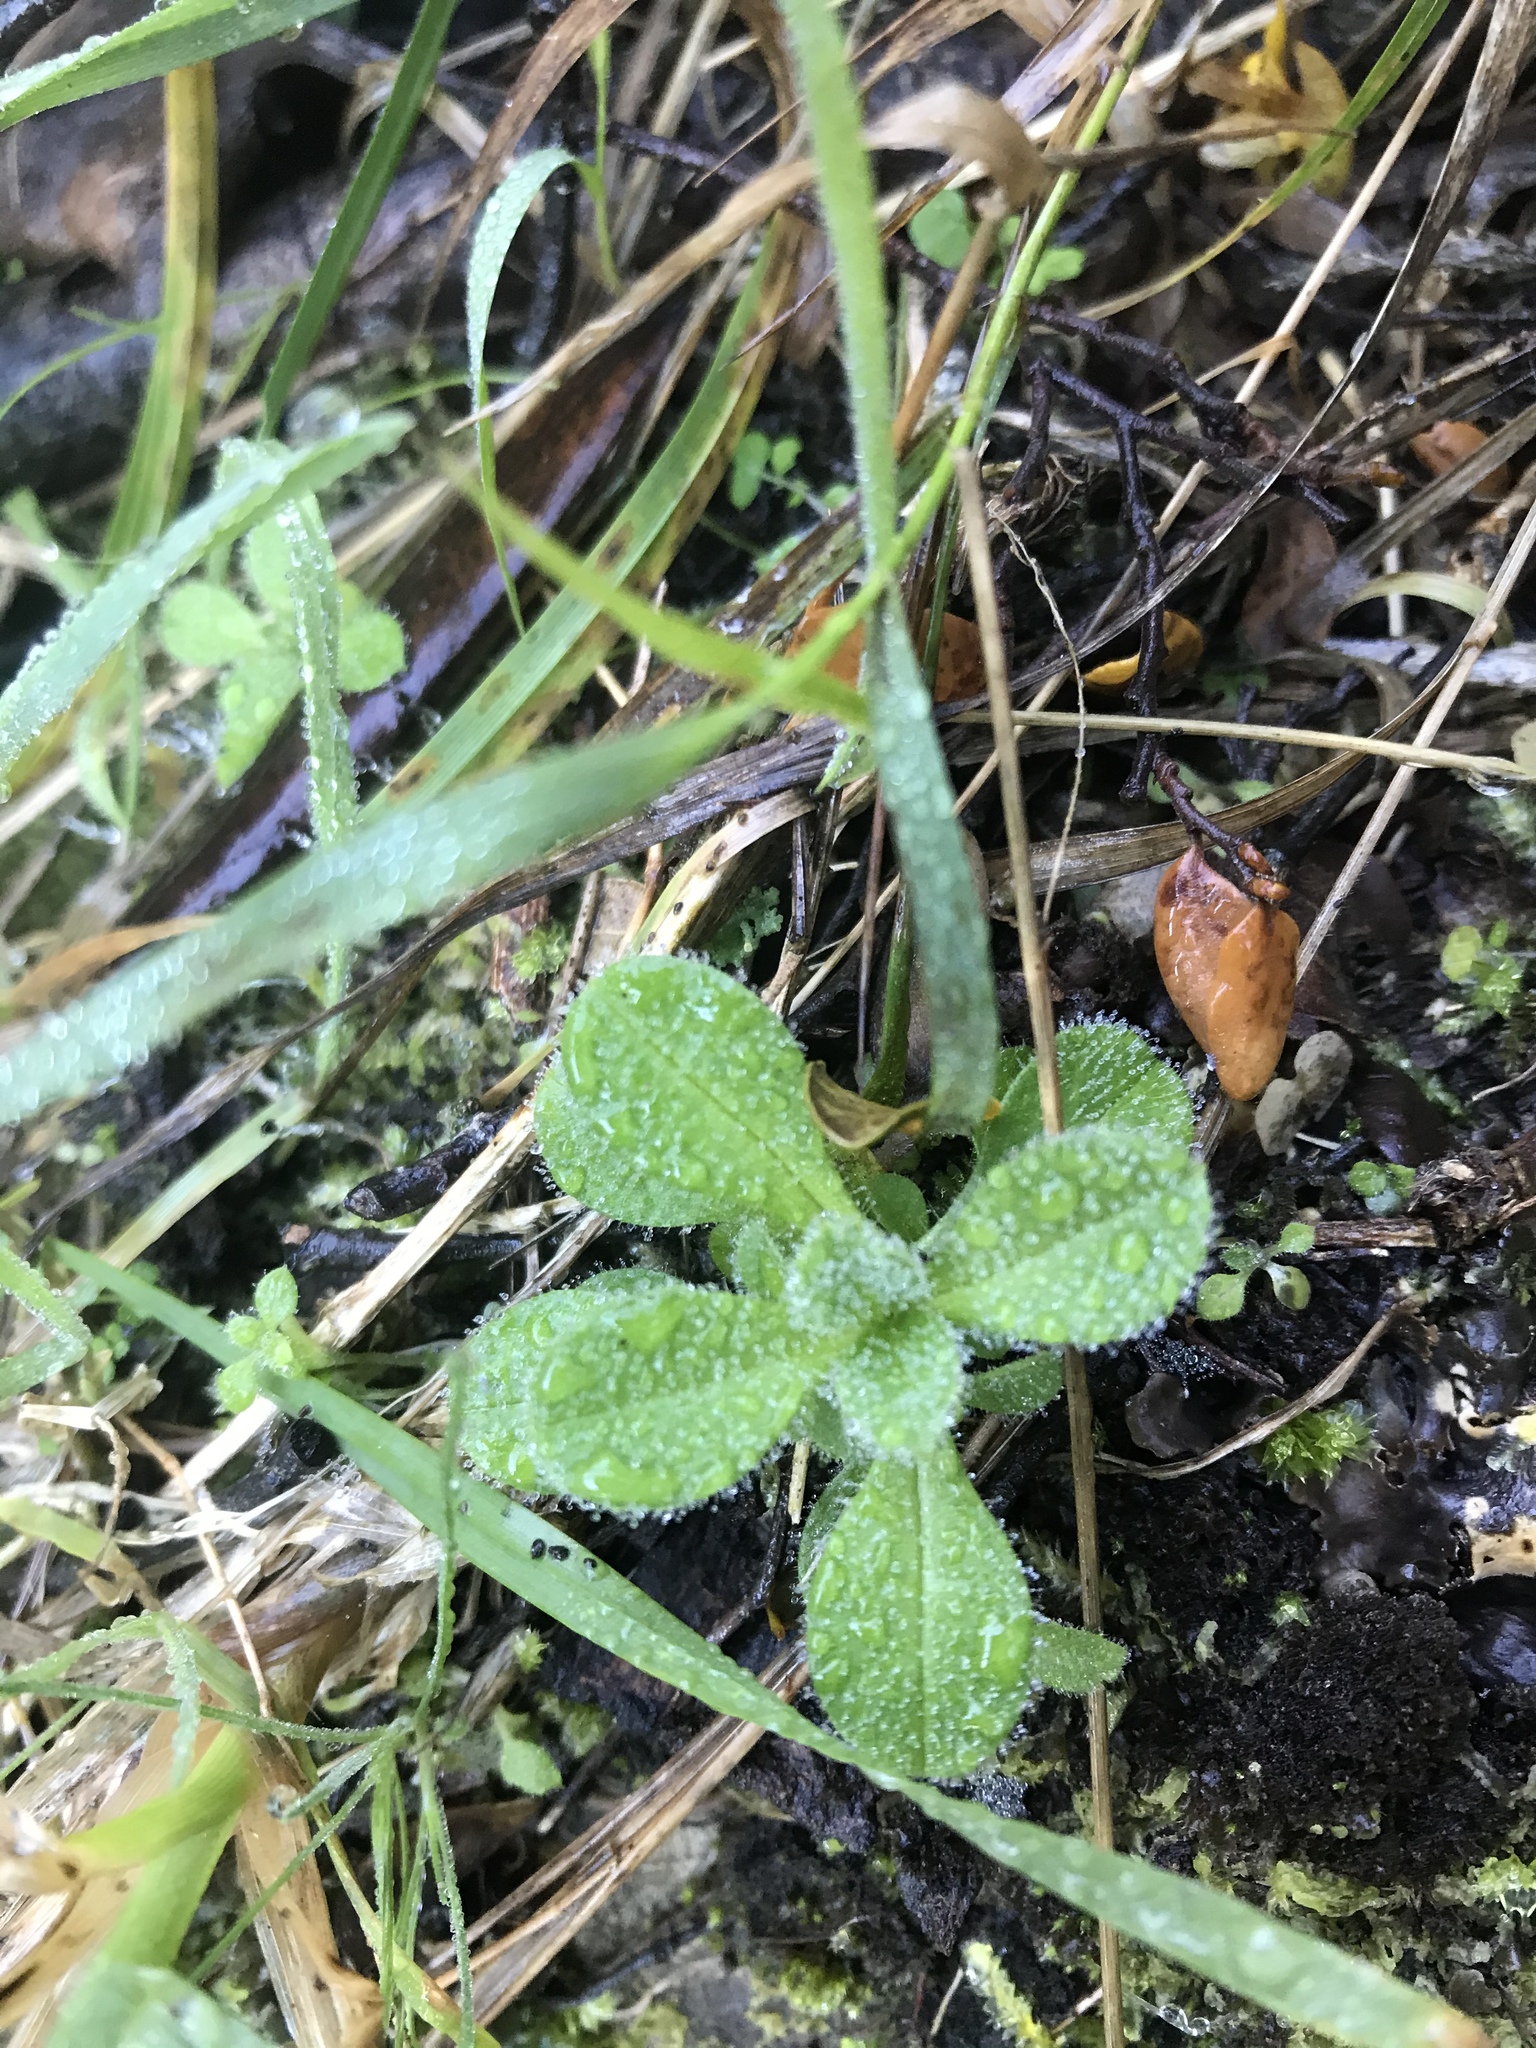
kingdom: Plantae
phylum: Tracheophyta
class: Magnoliopsida
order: Caryophyllales
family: Caryophyllaceae
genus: Cerastium
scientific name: Cerastium glomeratum
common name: Sticky chickweed
